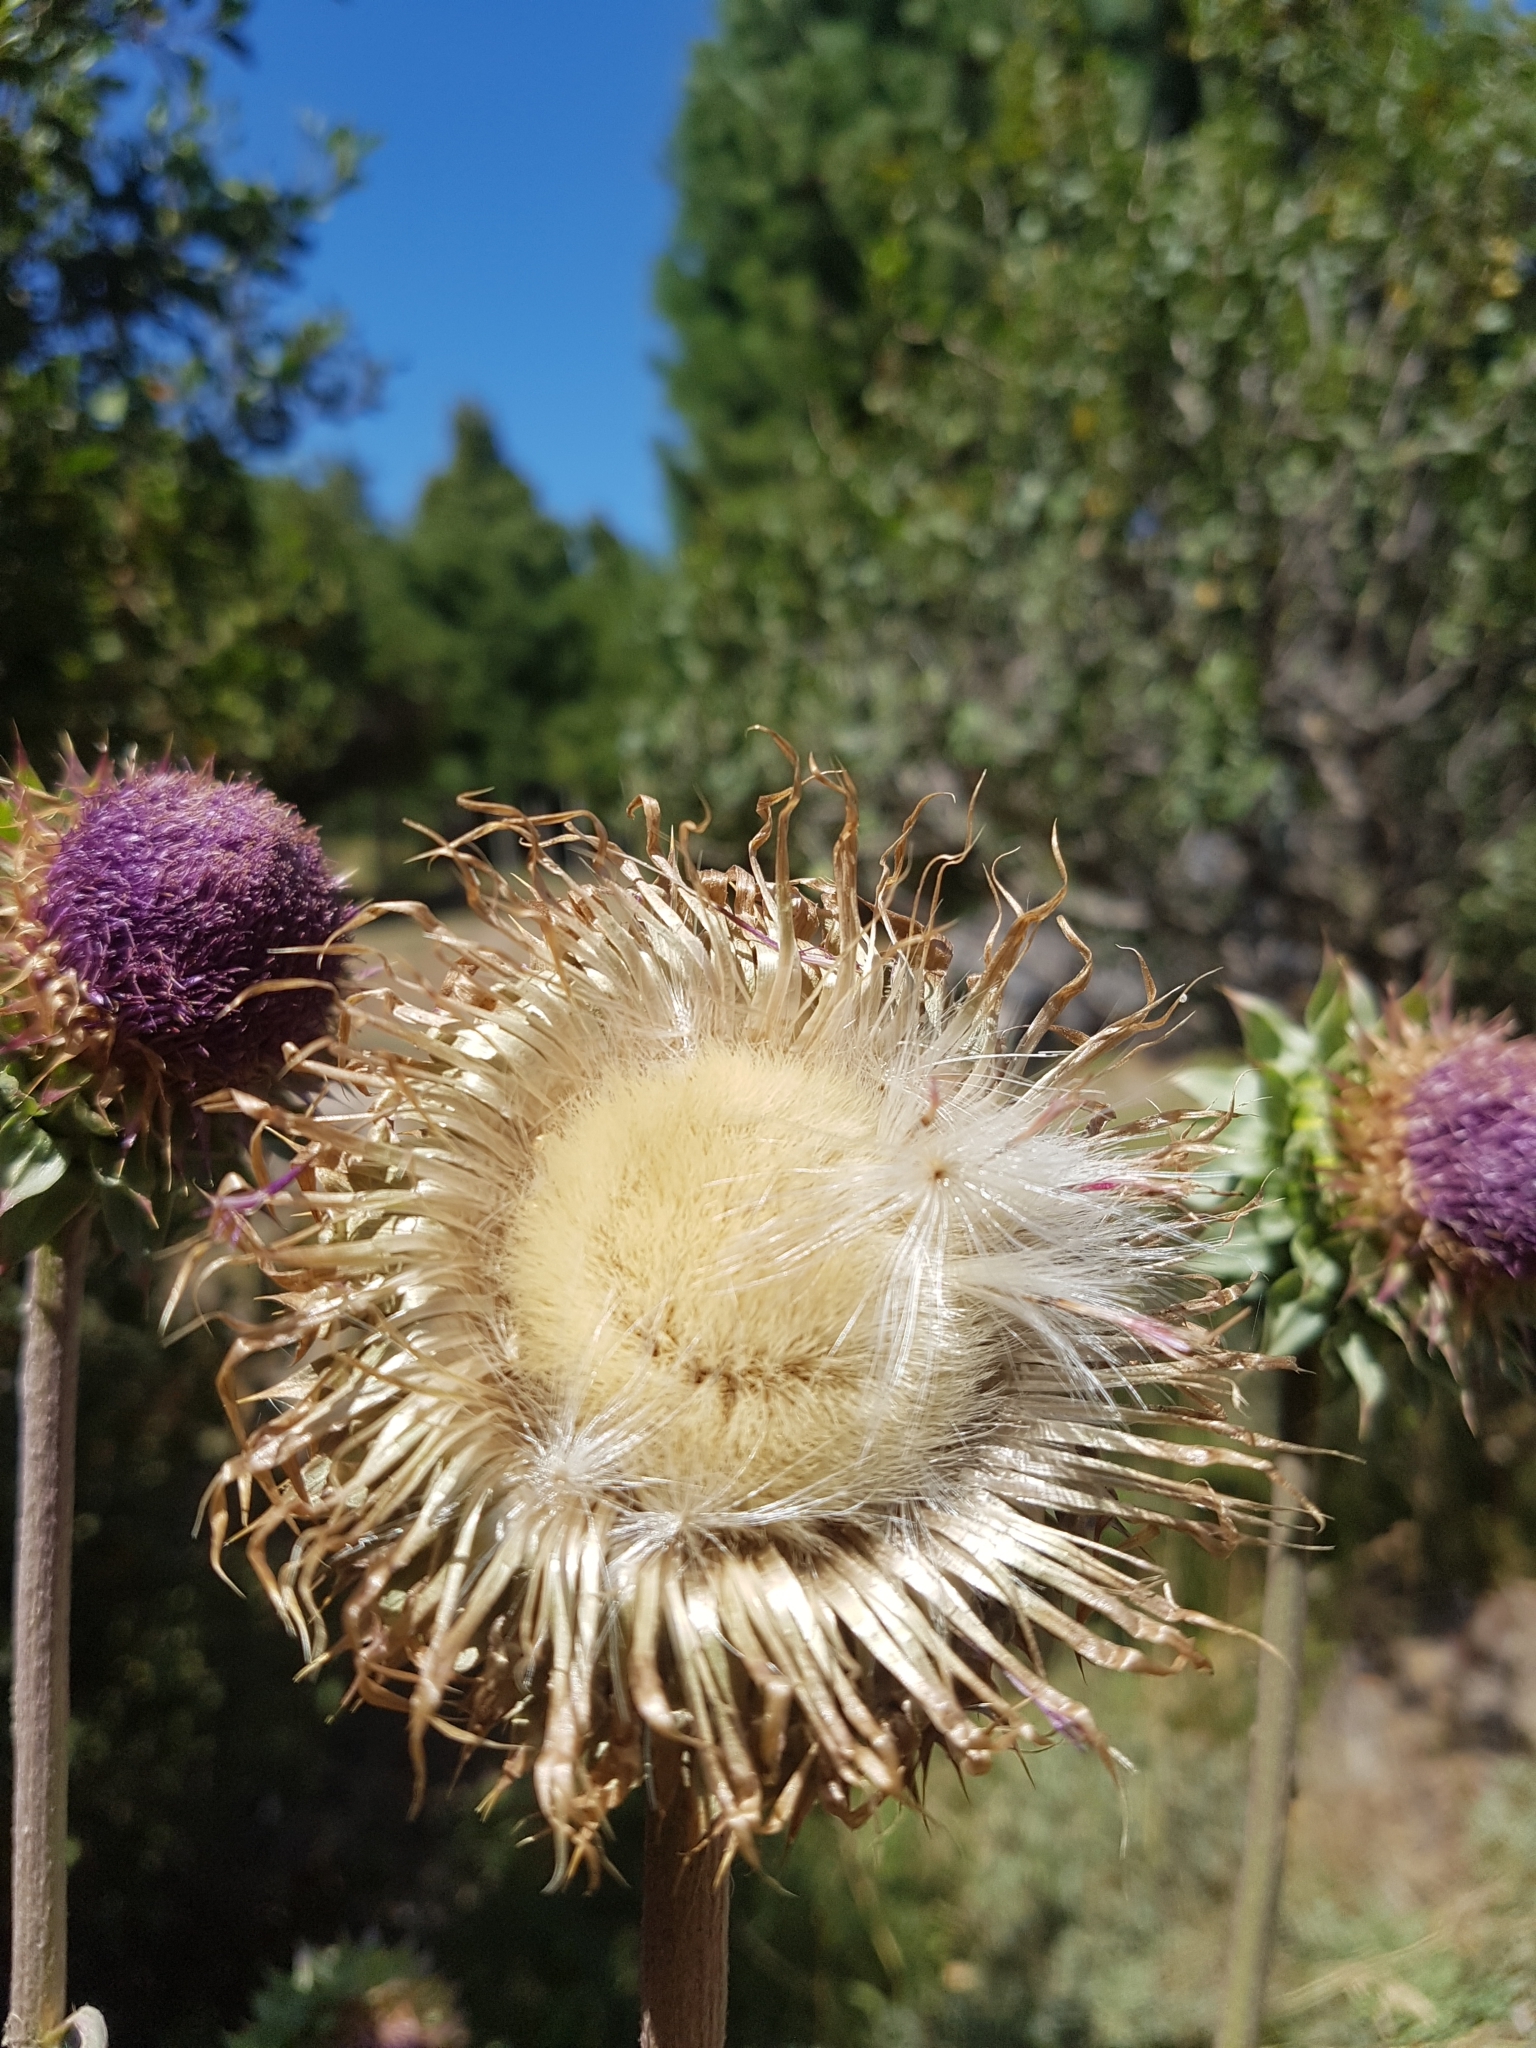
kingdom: Plantae
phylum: Tracheophyta
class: Magnoliopsida
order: Asterales
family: Asteraceae
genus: Carduus
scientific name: Carduus nutans
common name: Musk thistle
